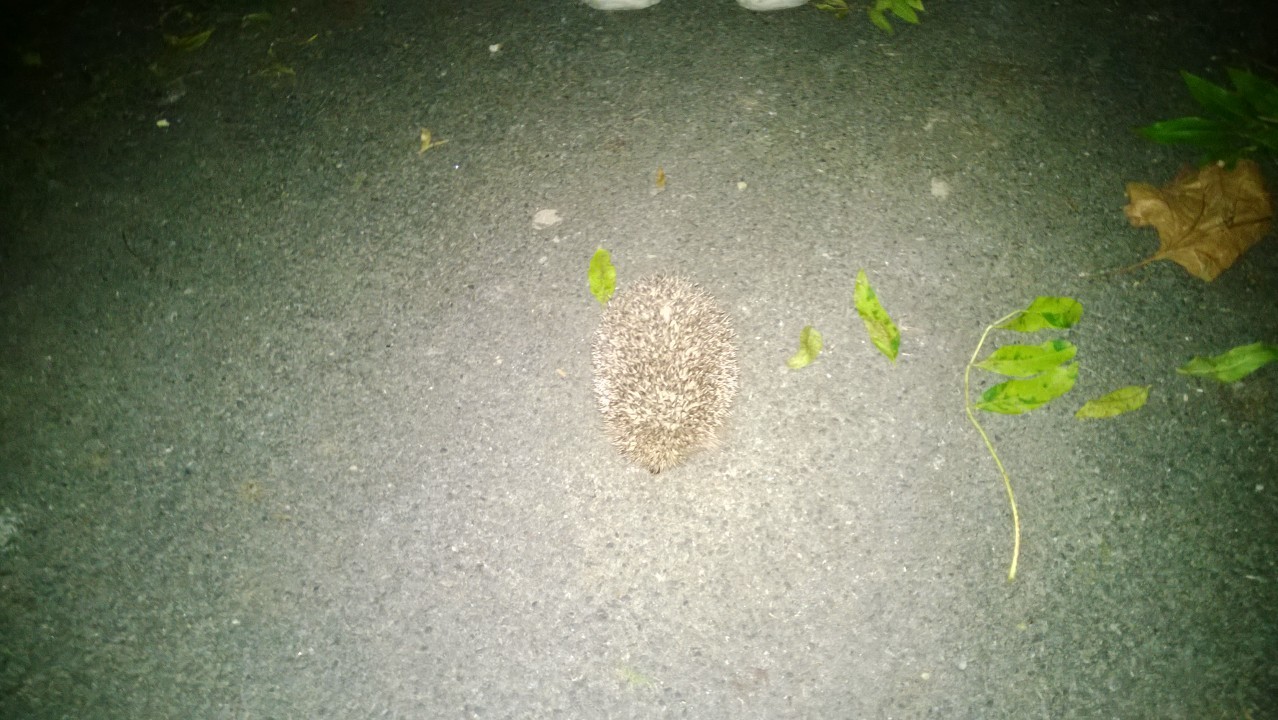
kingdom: Animalia
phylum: Chordata
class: Mammalia
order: Erinaceomorpha
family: Erinaceidae
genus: Erinaceus
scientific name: Erinaceus europaeus
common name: West european hedgehog
